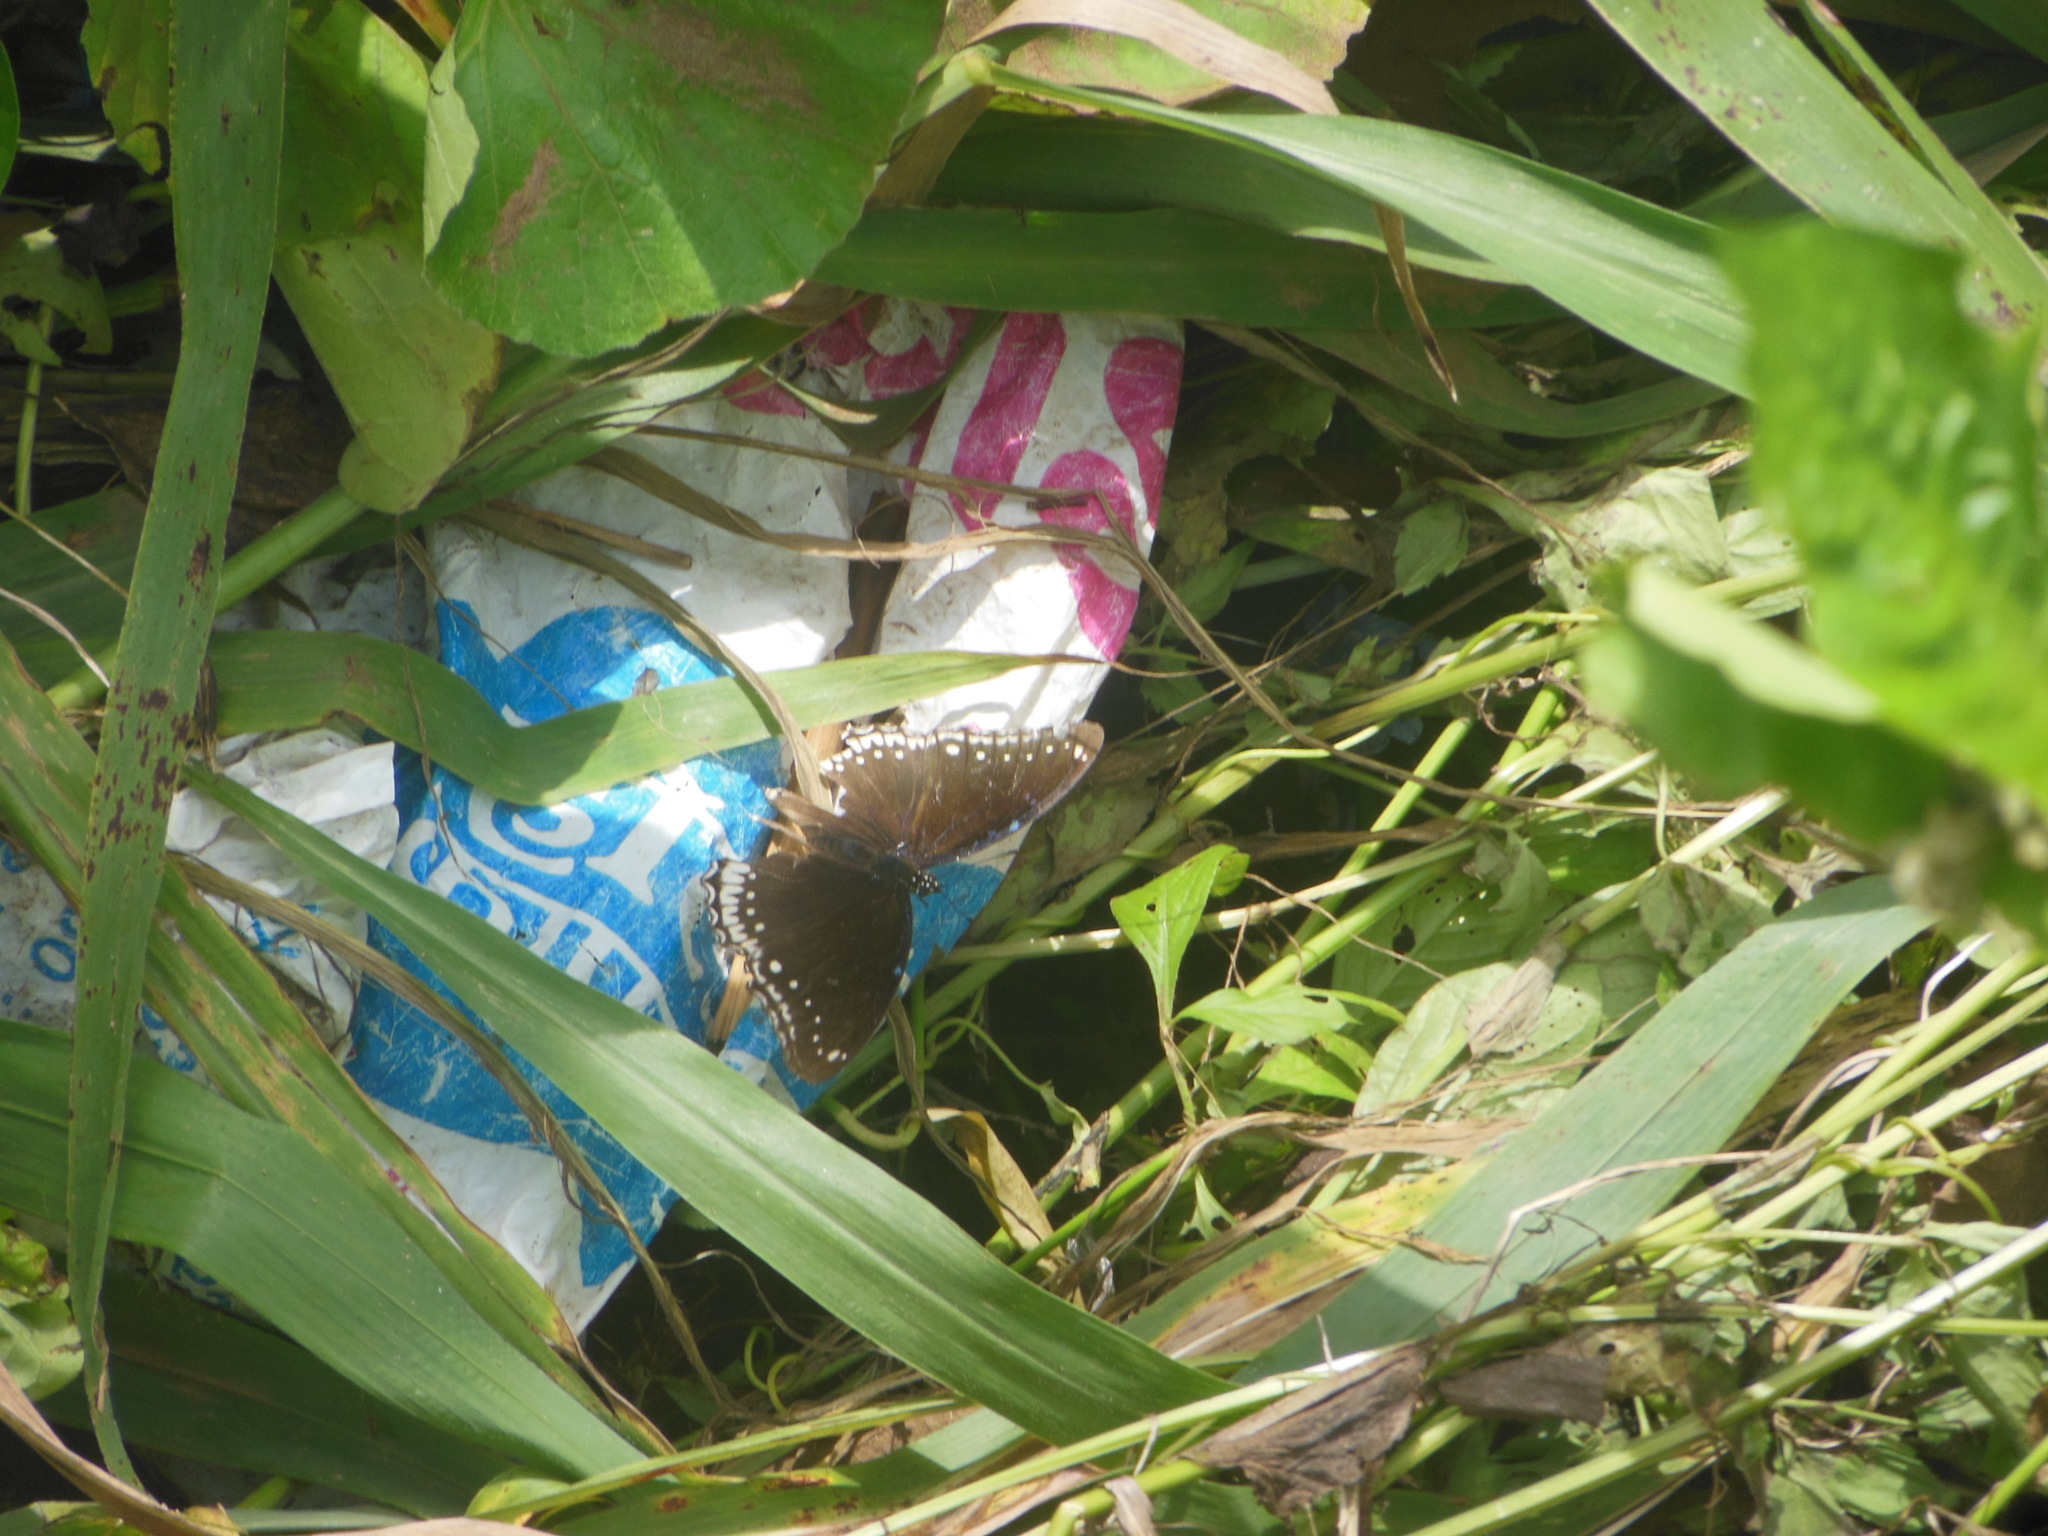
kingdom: Animalia
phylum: Arthropoda
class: Insecta
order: Lepidoptera
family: Nymphalidae
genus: Hypolimnas
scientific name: Hypolimnas bolina
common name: Great eggfly
